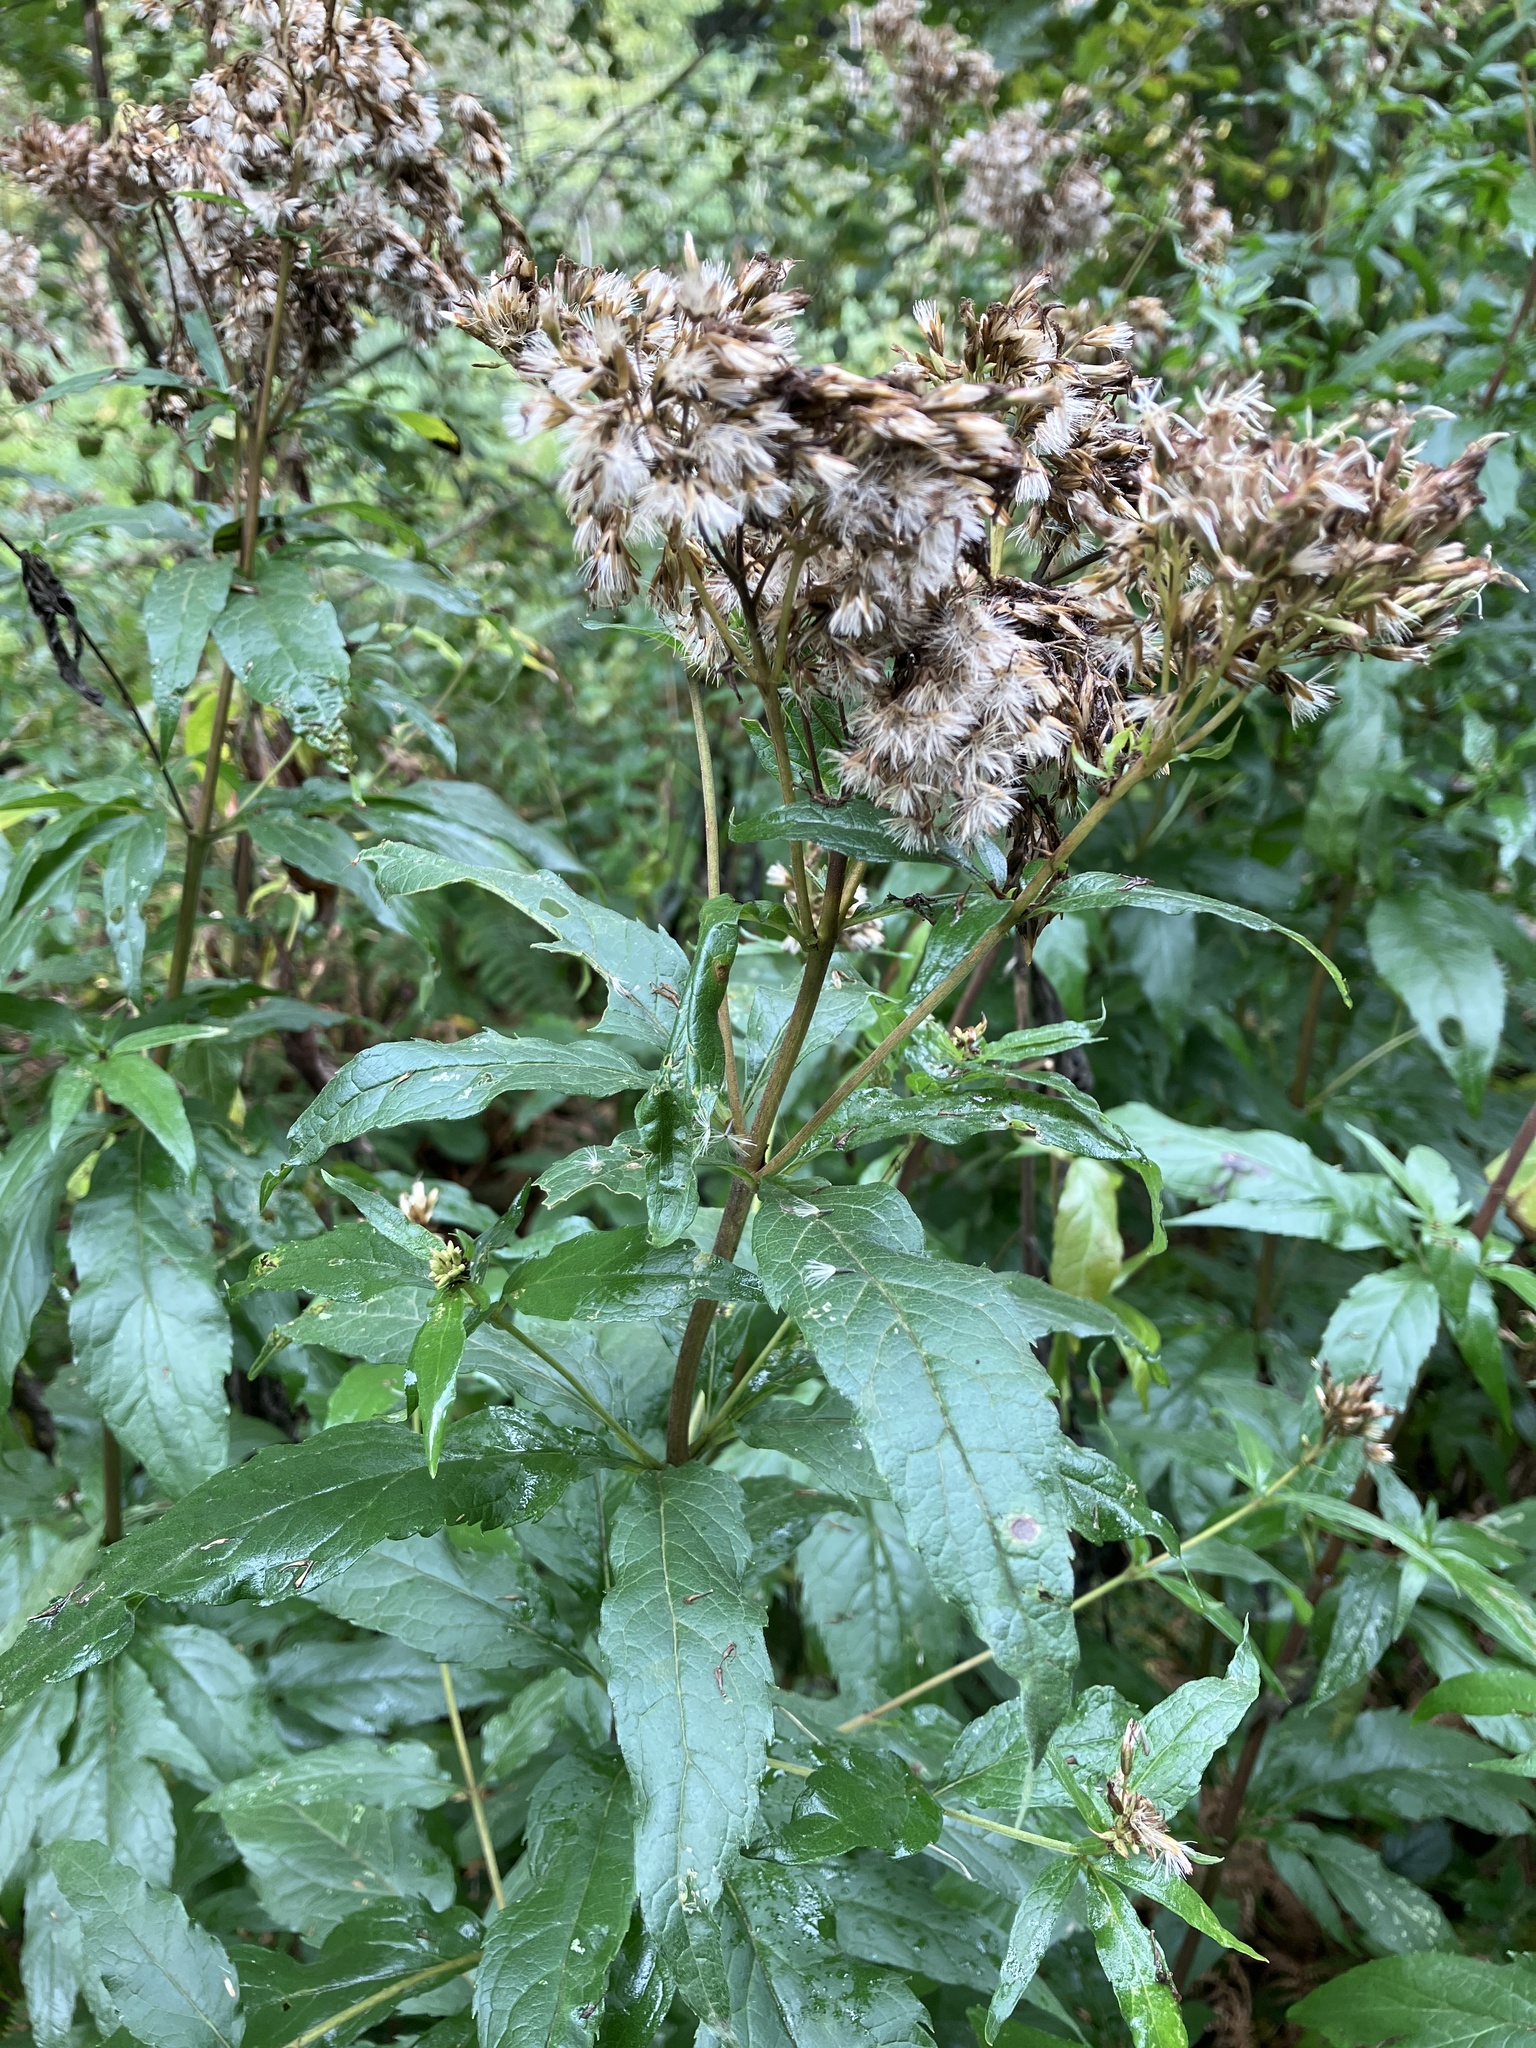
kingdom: Plantae
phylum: Tracheophyta
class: Magnoliopsida
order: Asterales
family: Asteraceae
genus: Eupatorium
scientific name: Eupatorium cannabinum
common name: Hemp-agrimony
